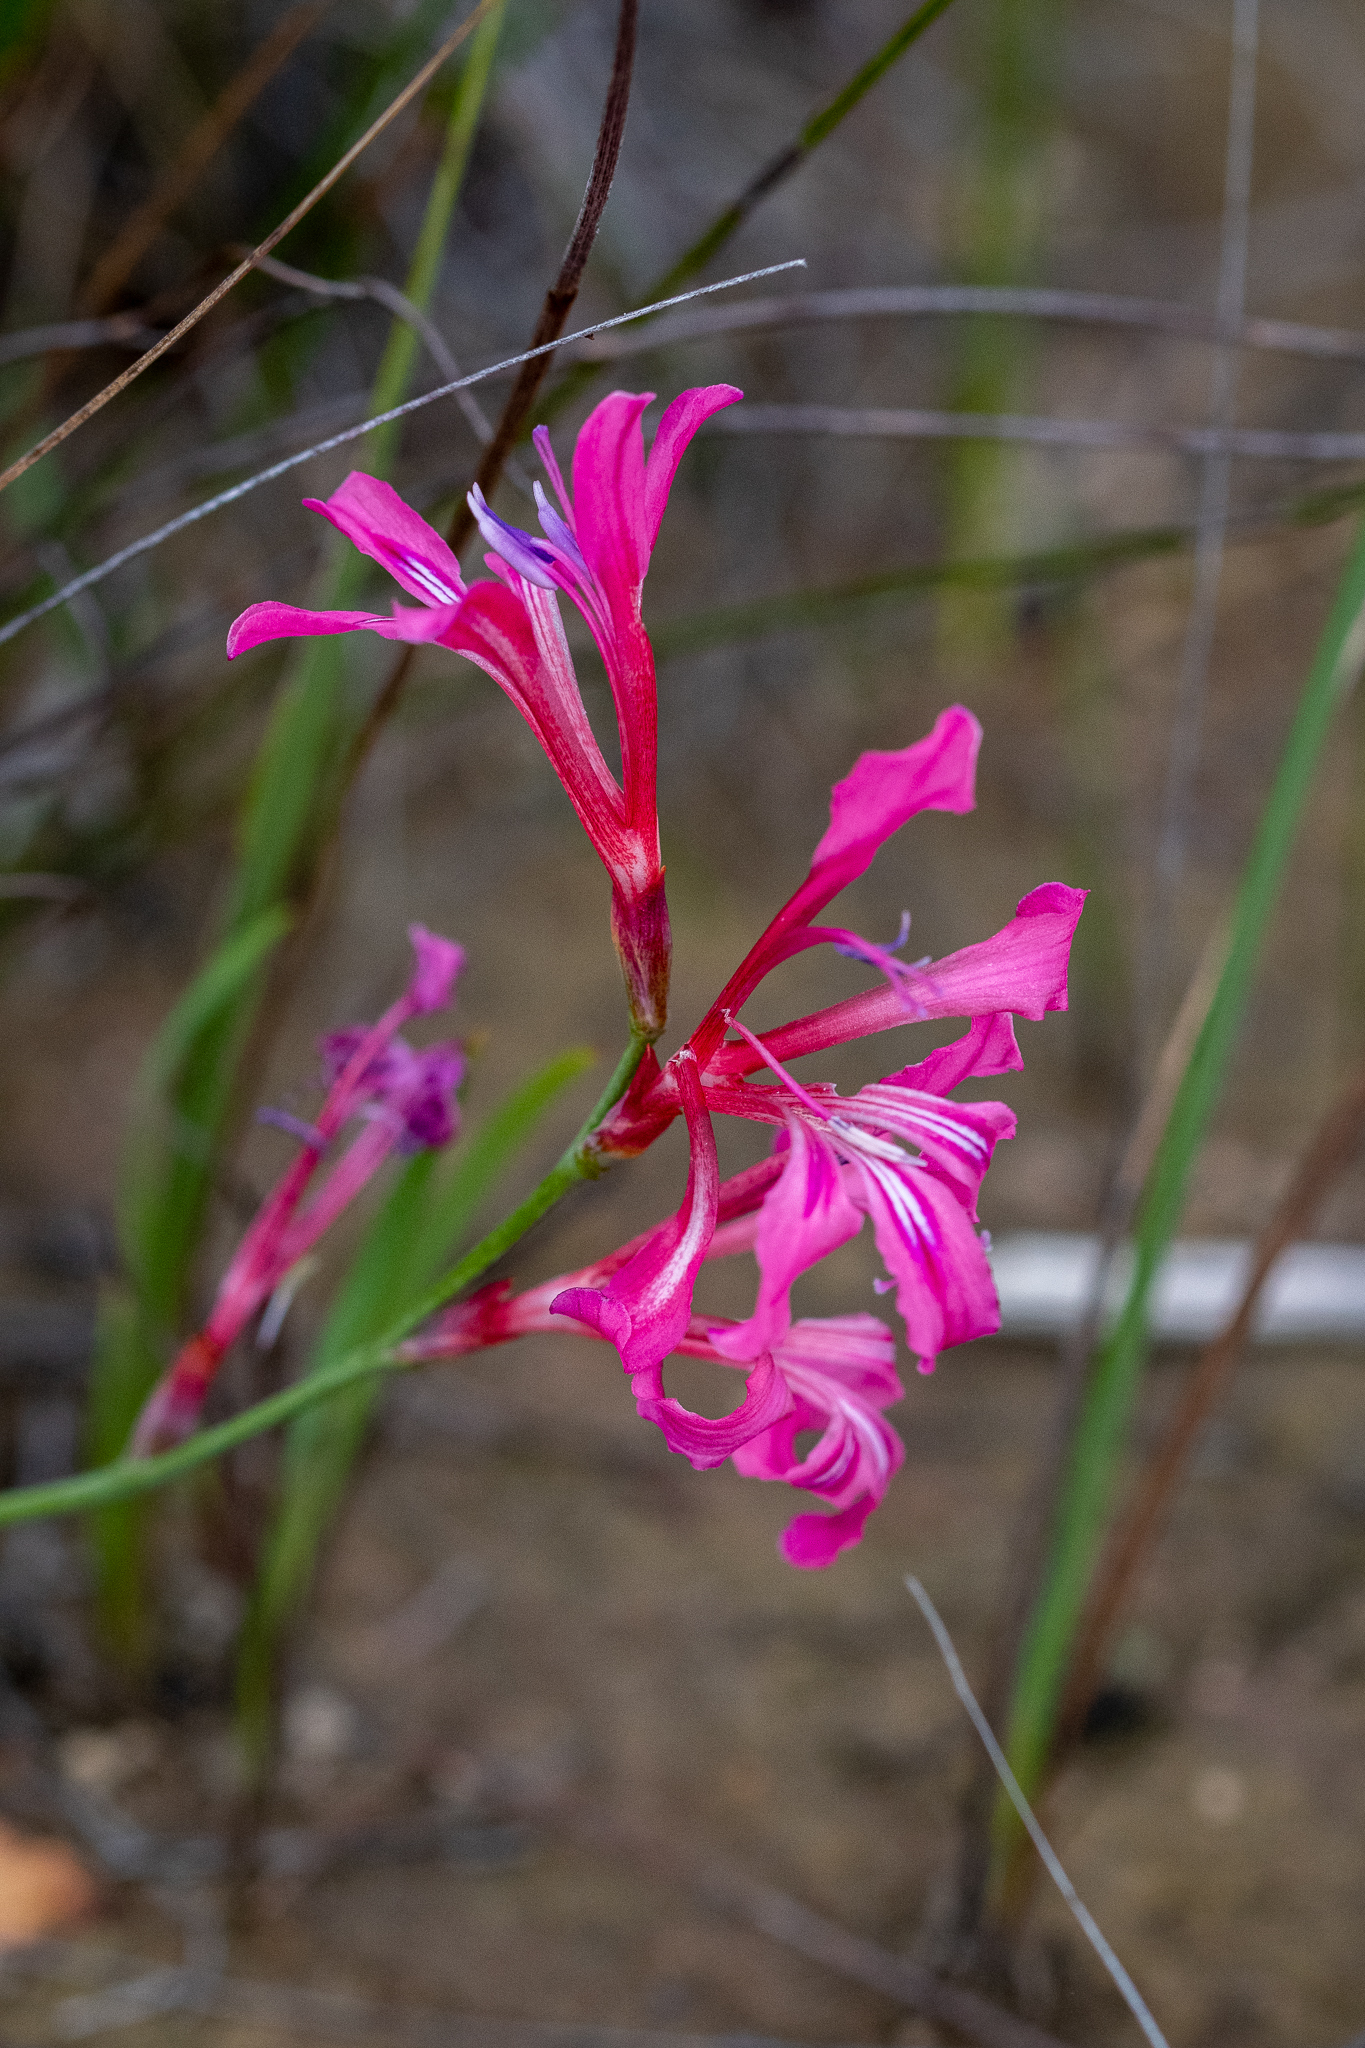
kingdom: Plantae
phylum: Tracheophyta
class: Liliopsida
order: Asparagales
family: Iridaceae
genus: Tritoniopsis
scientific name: Tritoniopsis ramosa
